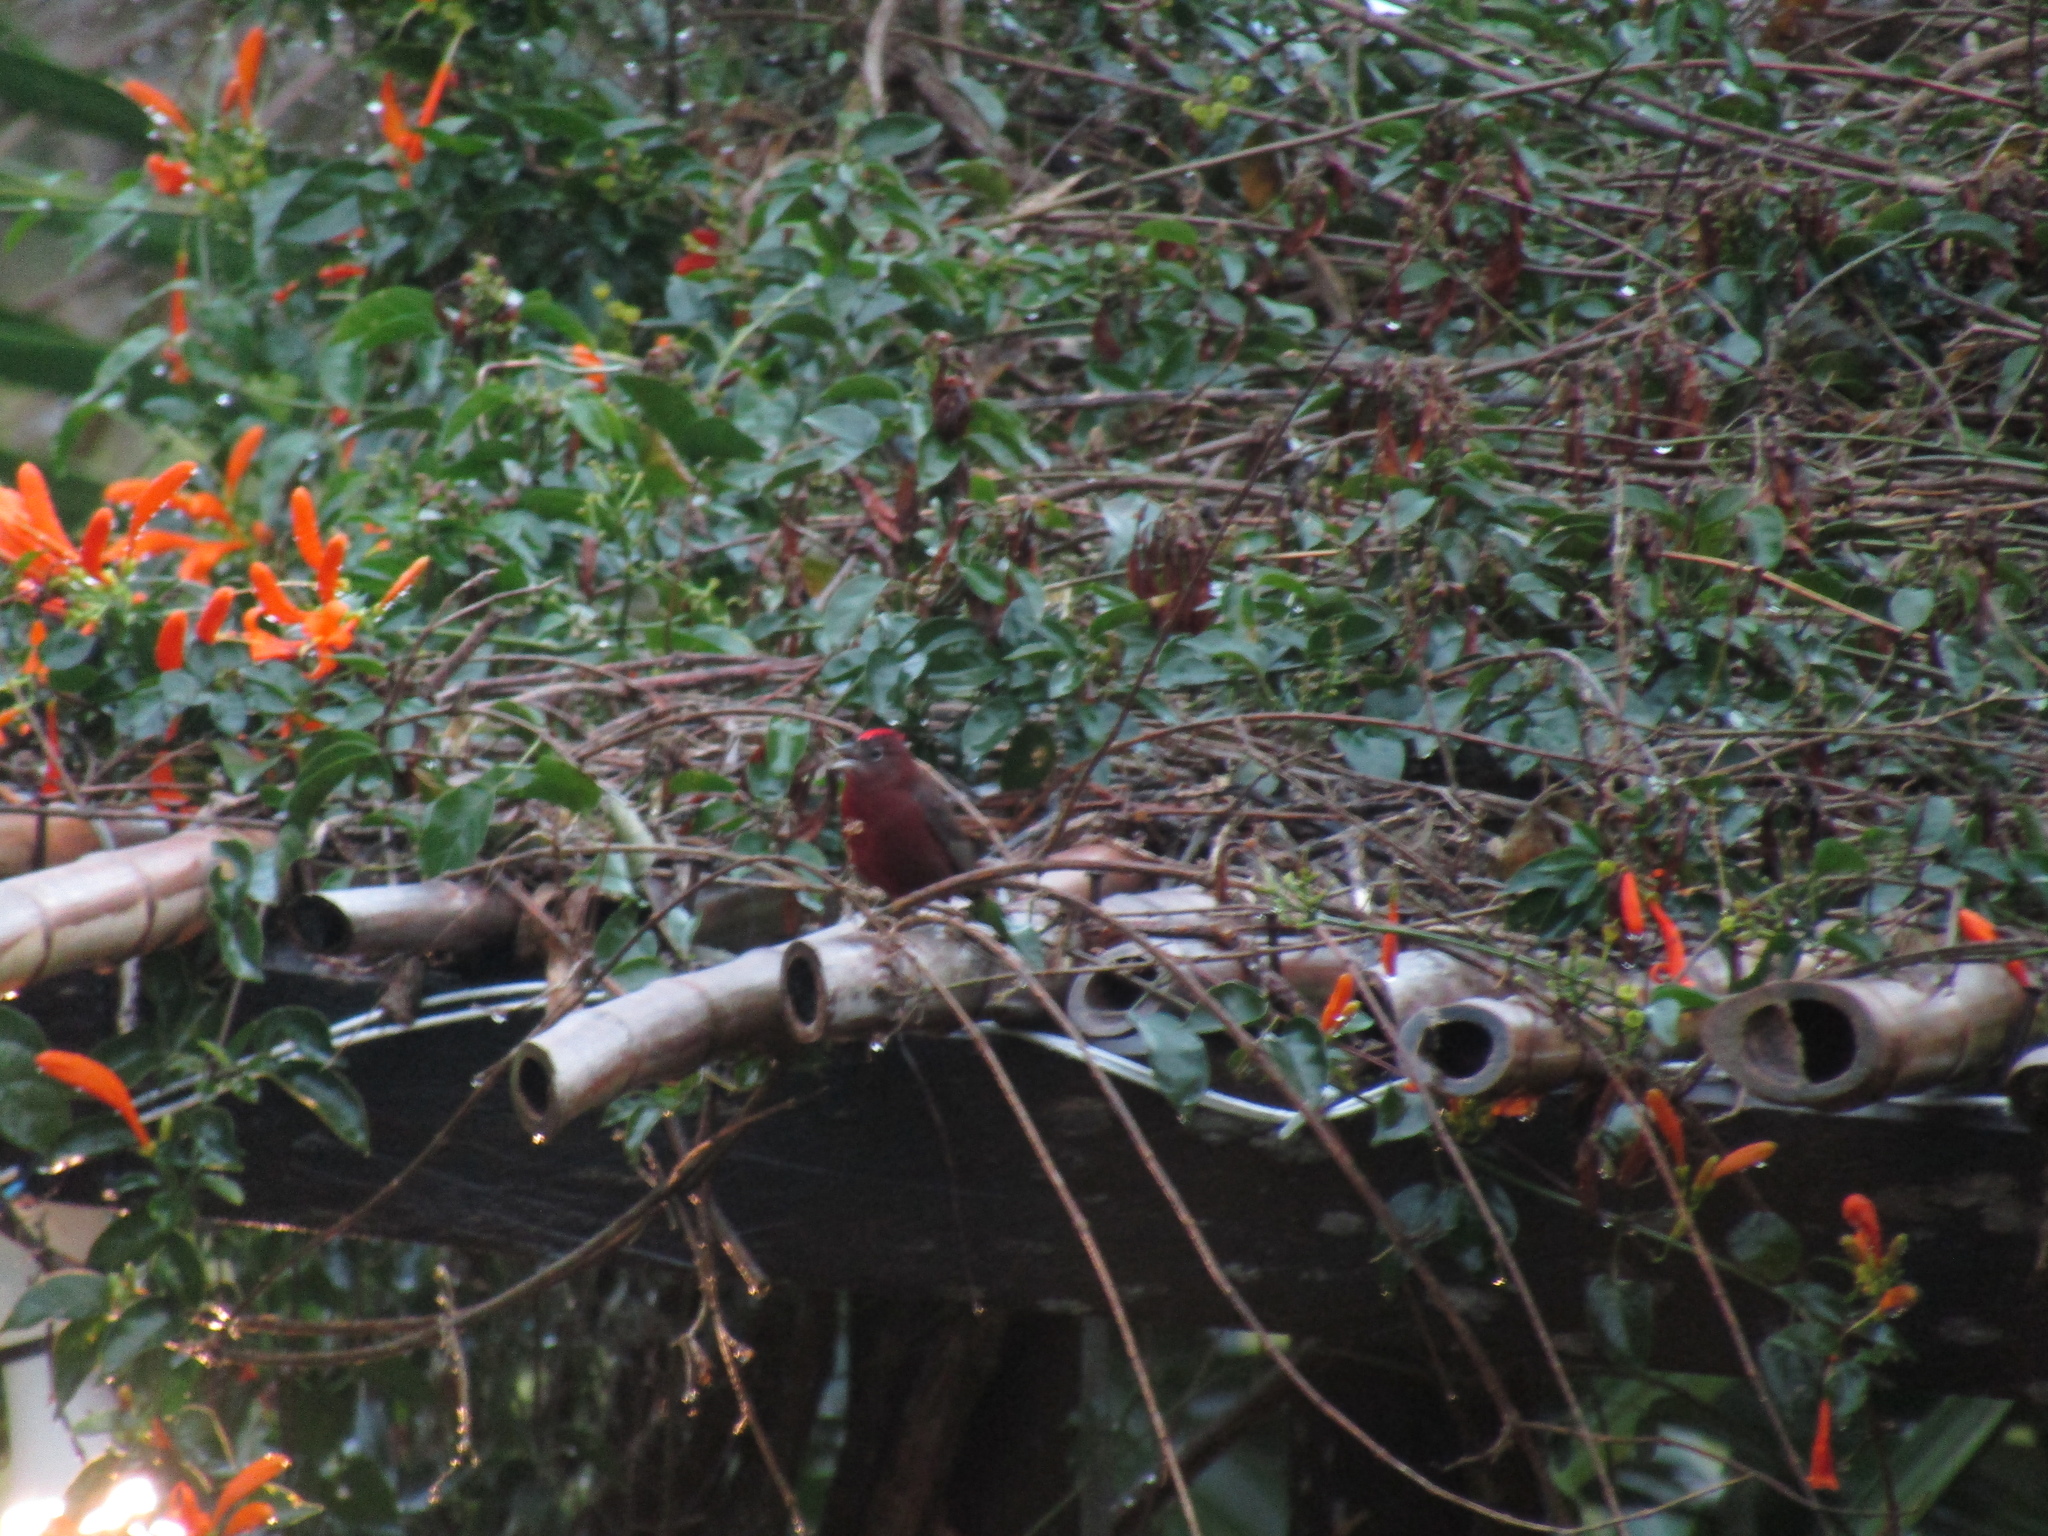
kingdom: Animalia
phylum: Chordata
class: Aves
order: Passeriformes
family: Thraupidae
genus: Coryphospingus
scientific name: Coryphospingus cucullatus
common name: Red pileated finch
